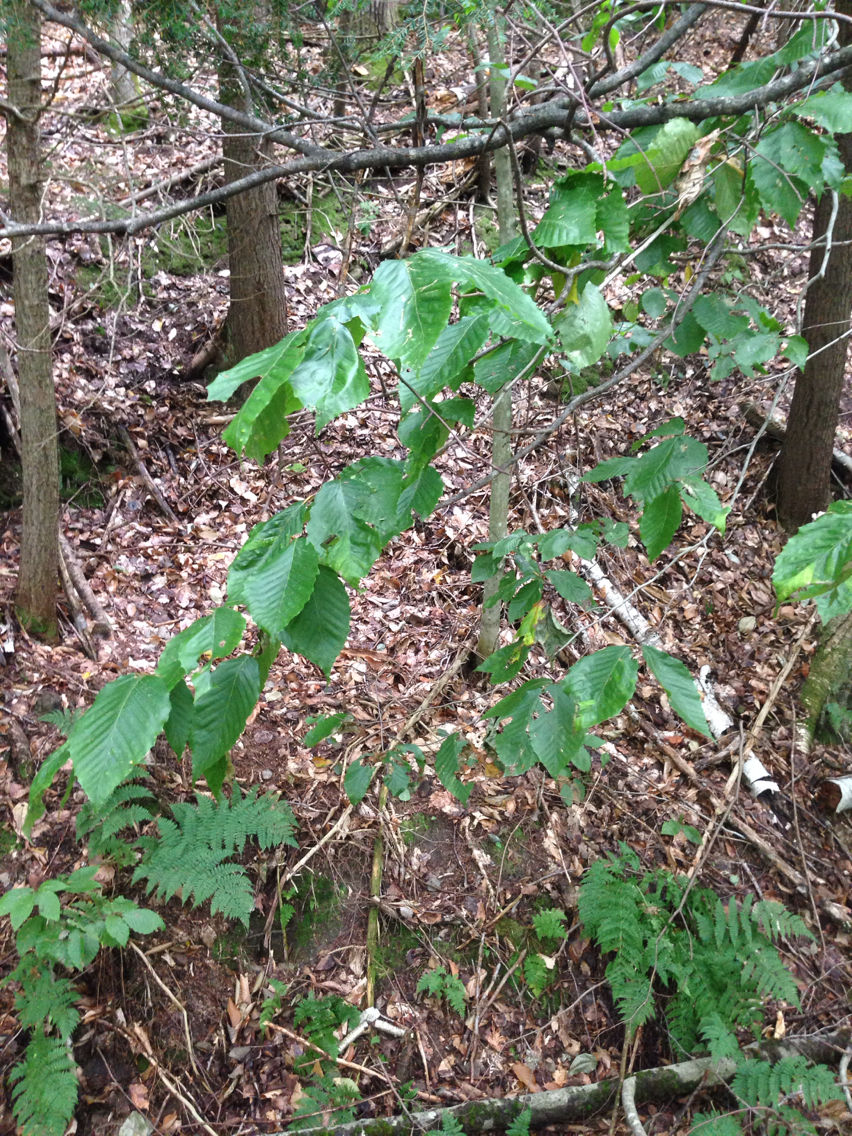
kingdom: Plantae
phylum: Tracheophyta
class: Magnoliopsida
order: Fagales
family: Fagaceae
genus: Fagus
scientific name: Fagus grandifolia
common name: American beech
